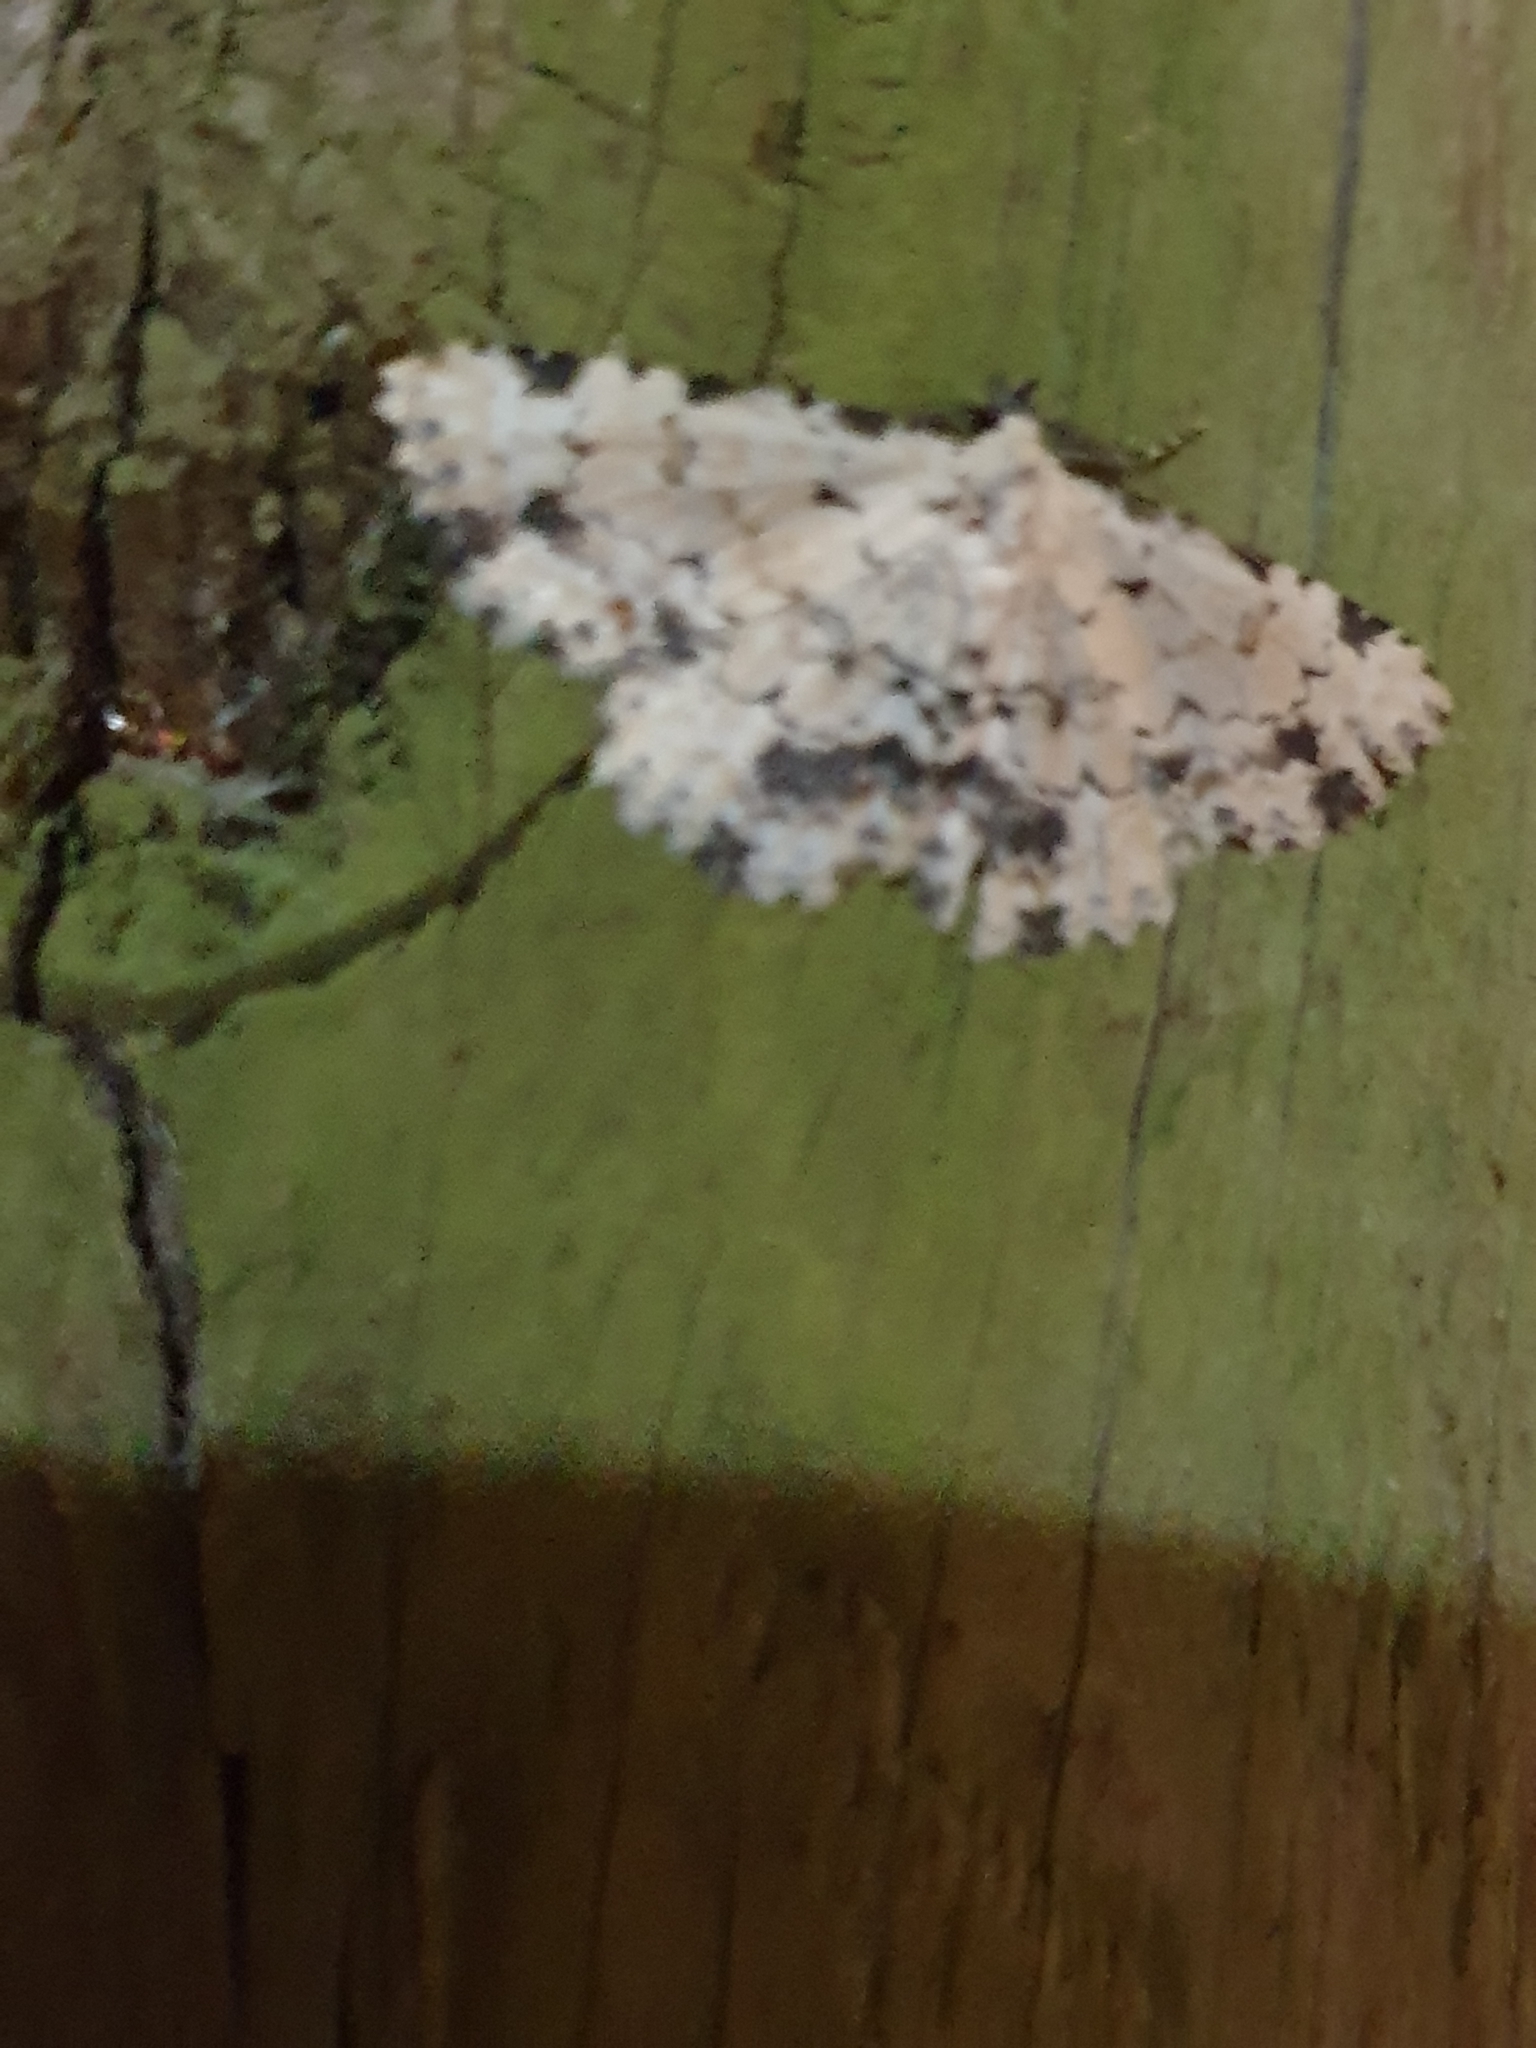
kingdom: Animalia
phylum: Arthropoda
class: Insecta
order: Lepidoptera
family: Erebidae
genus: Sandava
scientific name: Sandava scitisignata
